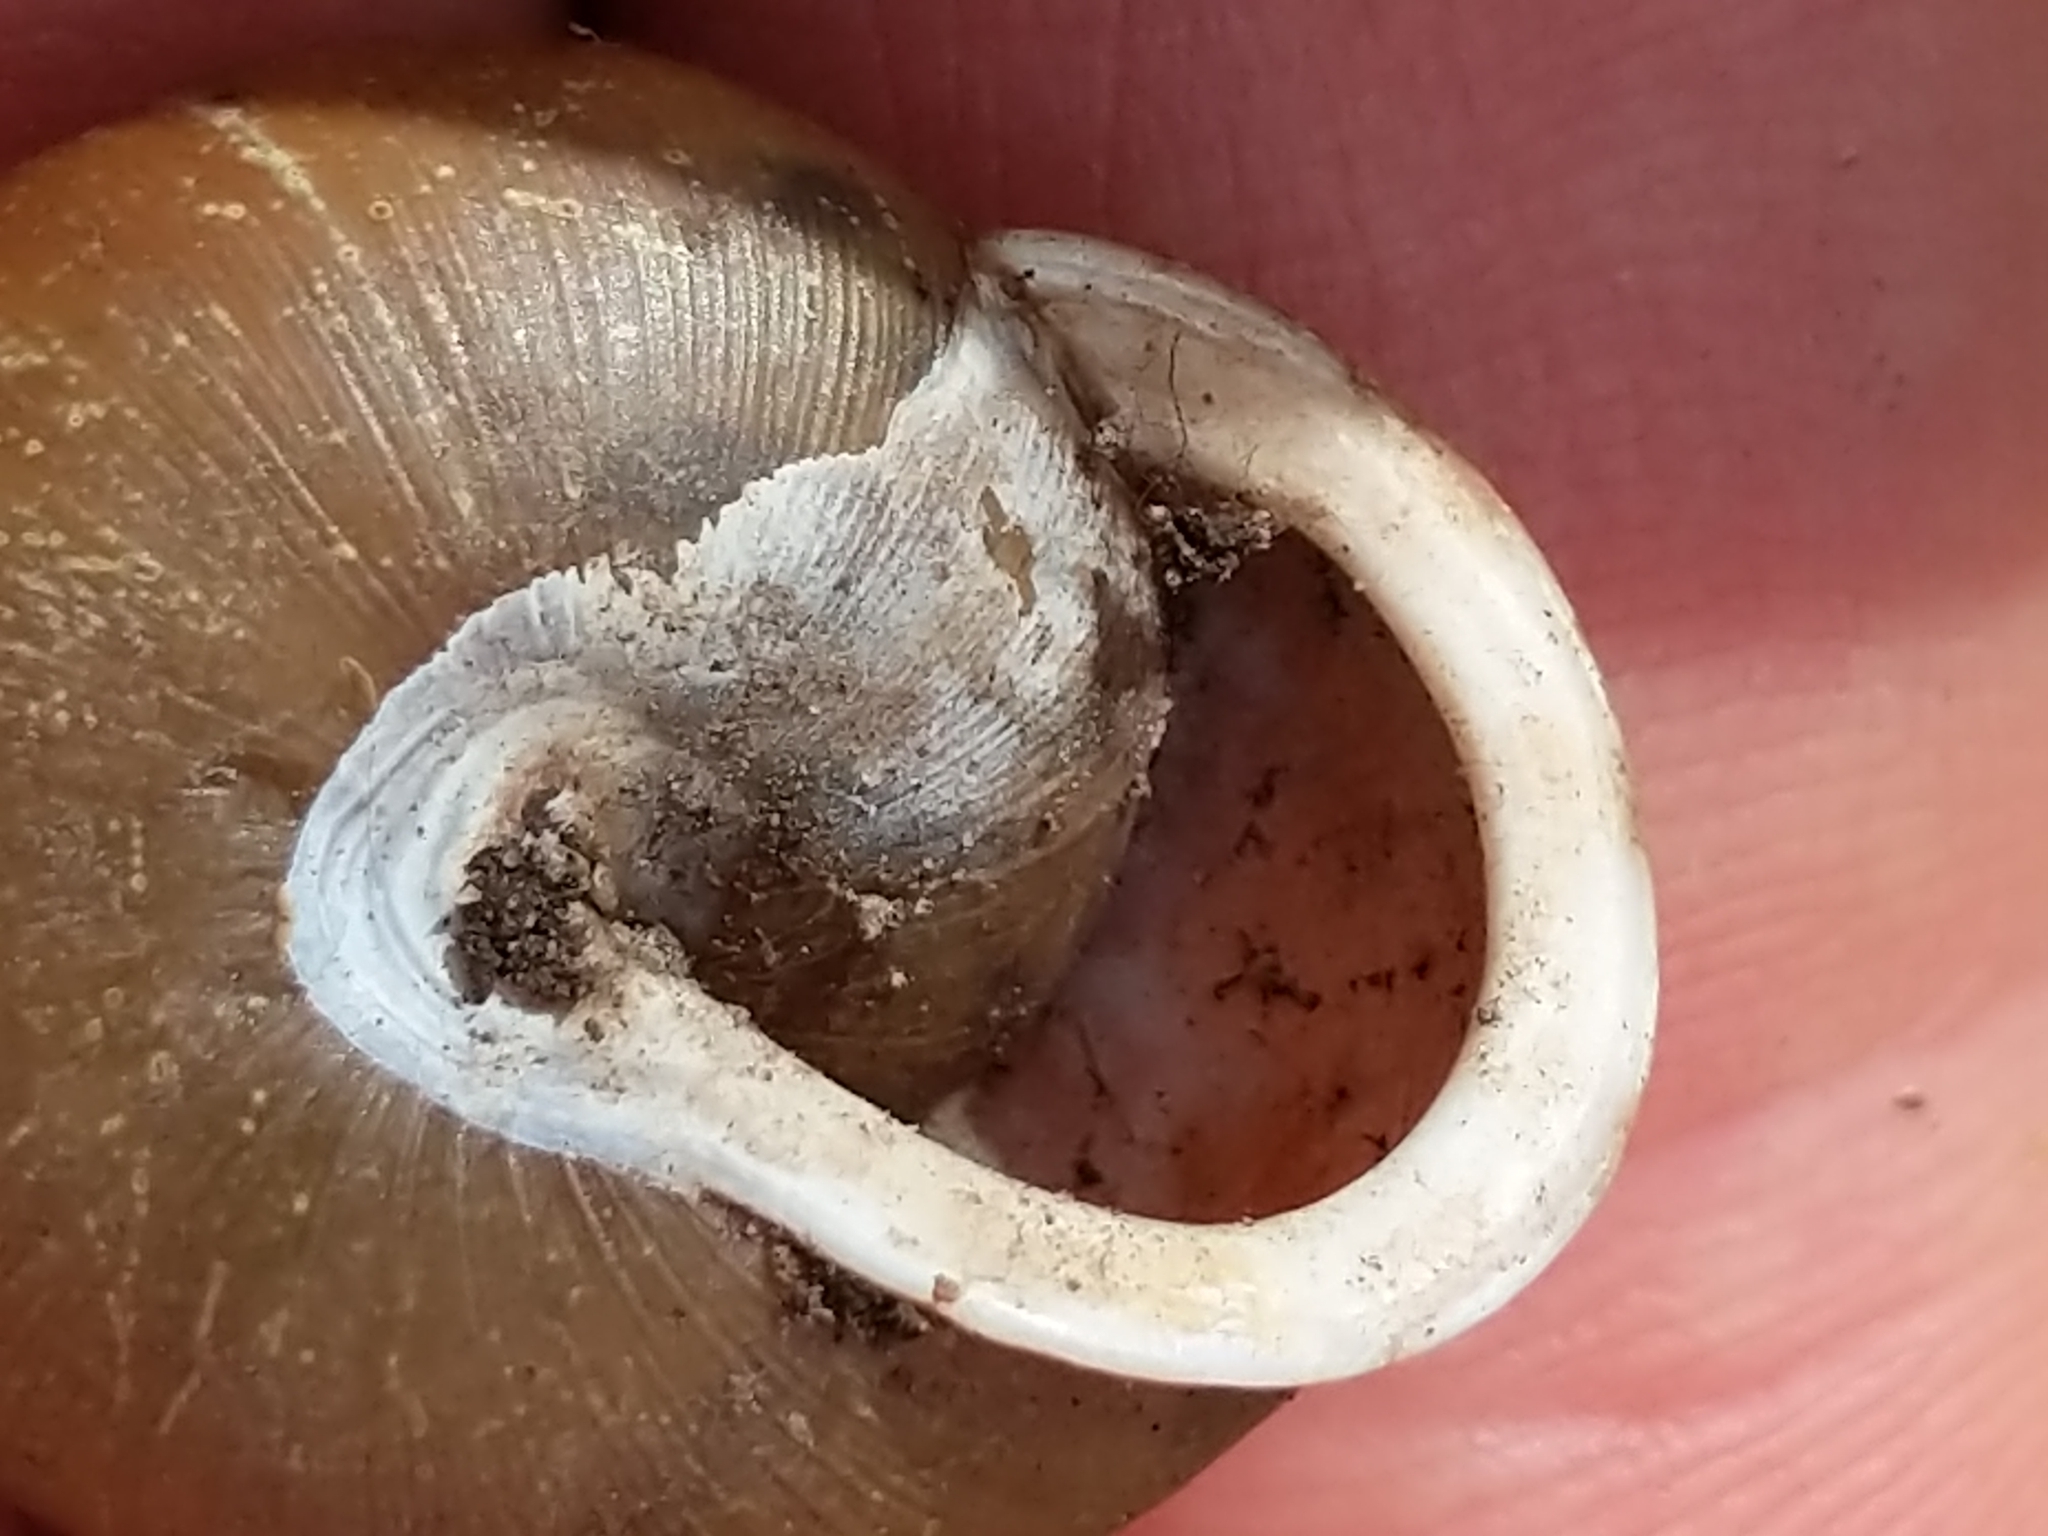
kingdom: Animalia
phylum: Mollusca
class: Gastropoda
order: Stylommatophora
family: Polygyridae
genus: Neohelix
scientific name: Neohelix albolabris
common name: Eastern whitelip
